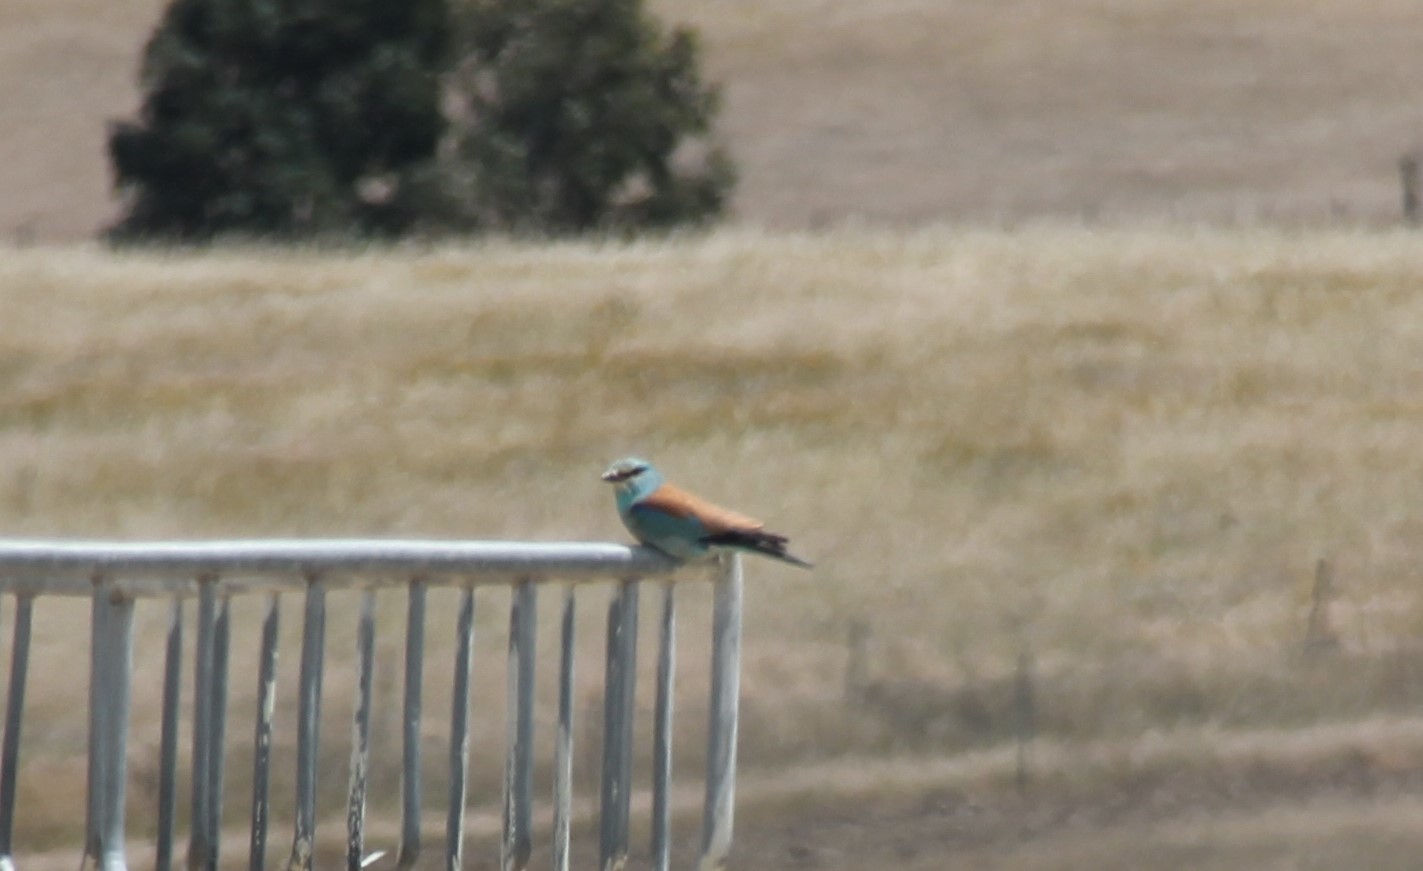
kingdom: Animalia
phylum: Chordata
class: Aves
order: Coraciiformes
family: Coraciidae
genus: Coracias
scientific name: Coracias garrulus
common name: European roller
